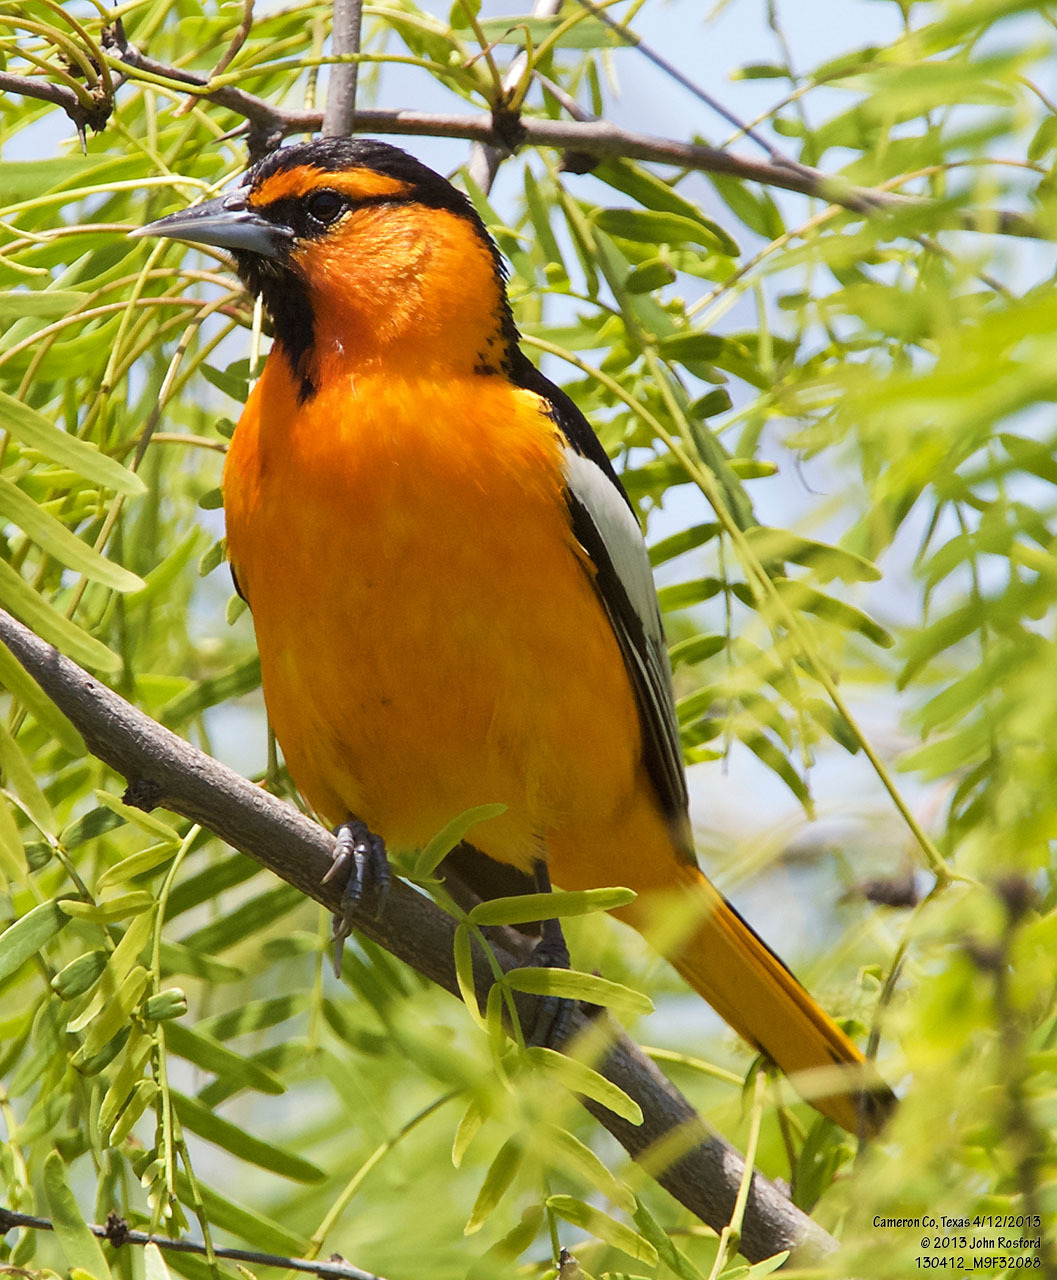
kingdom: Animalia
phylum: Chordata
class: Aves
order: Passeriformes
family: Icteridae
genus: Icterus
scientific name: Icterus bullockii
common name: Bullock's oriole
